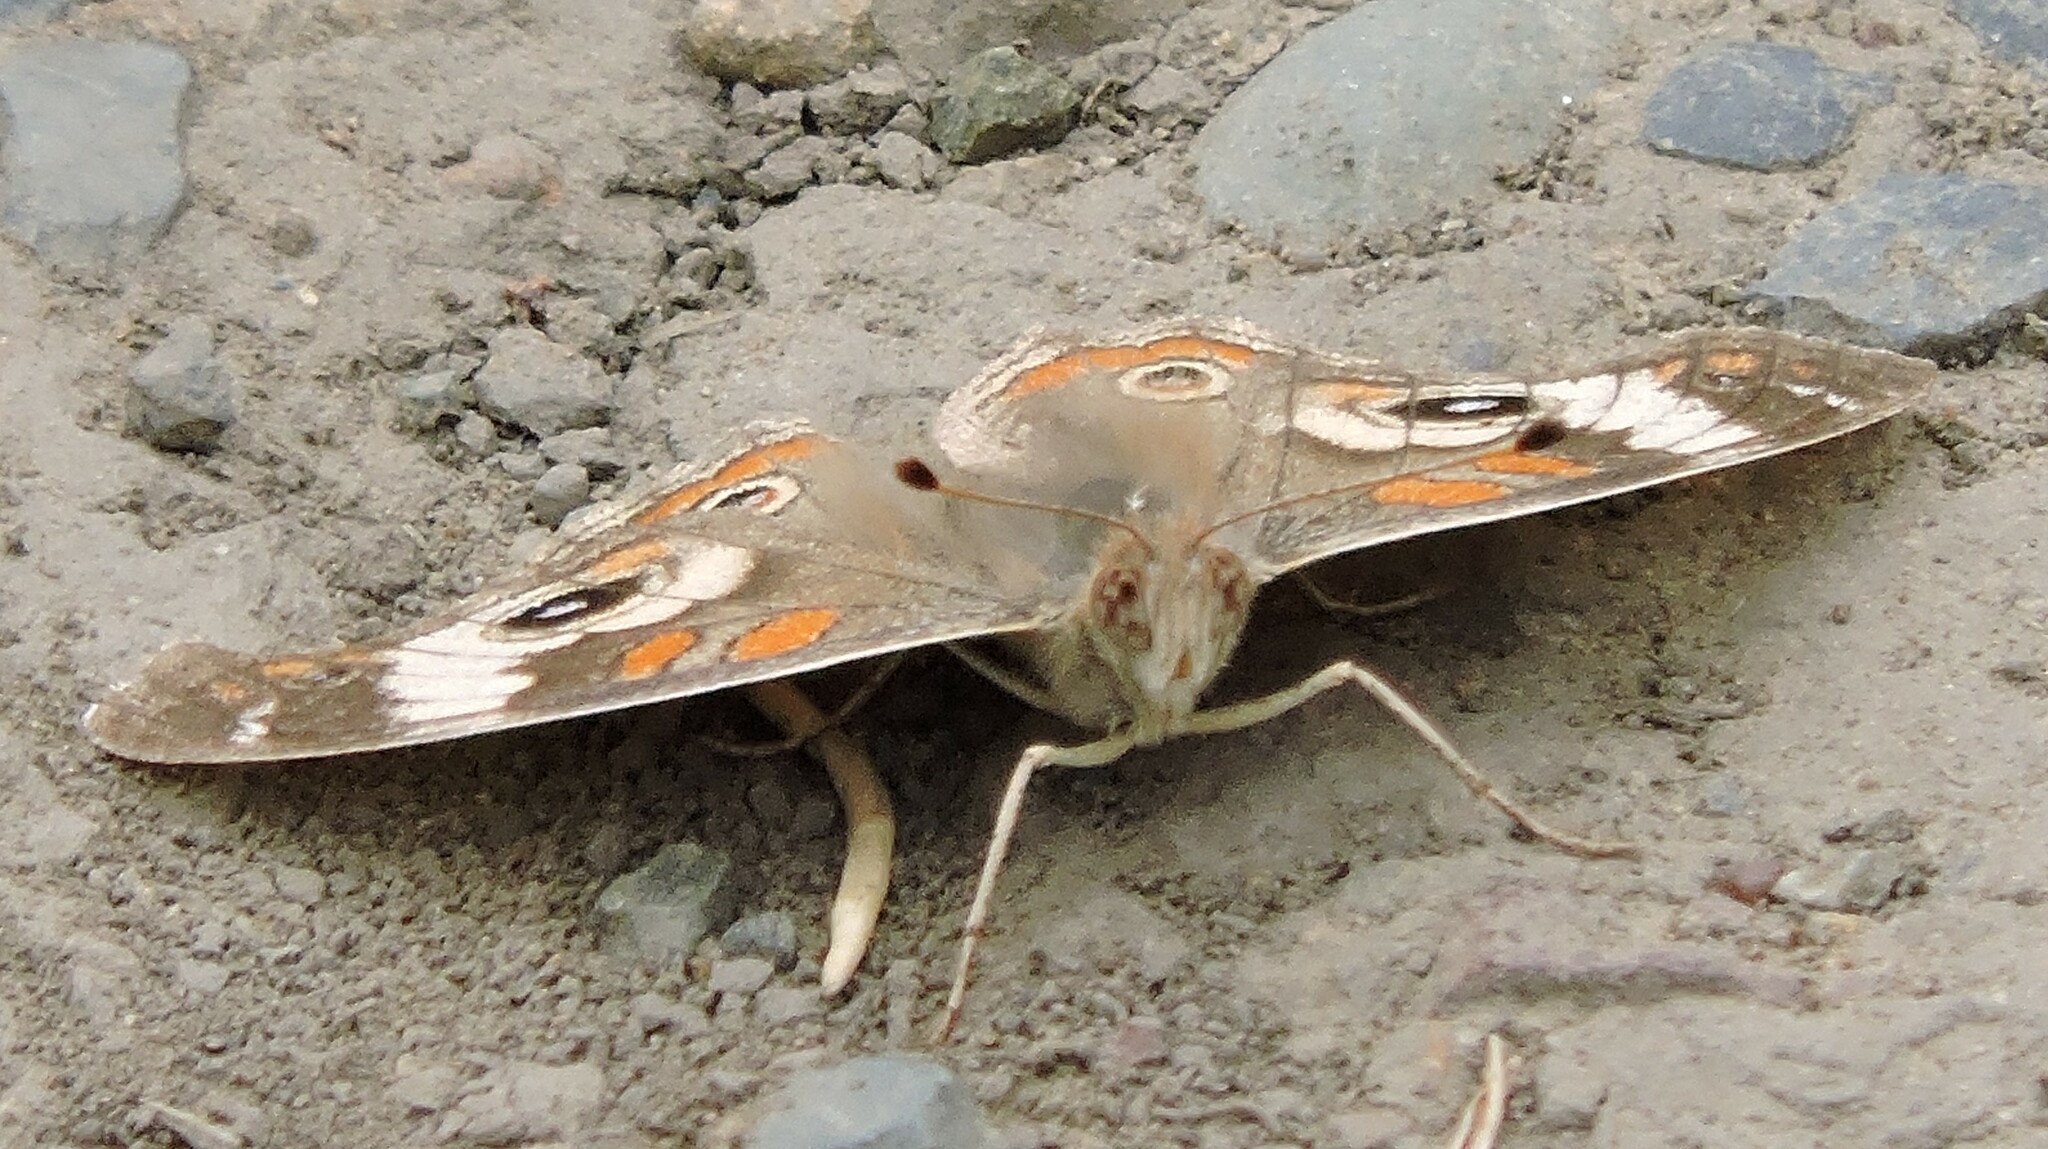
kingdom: Animalia
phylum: Arthropoda
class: Insecta
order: Lepidoptera
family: Nymphalidae
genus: Junonia
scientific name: Junonia grisea
